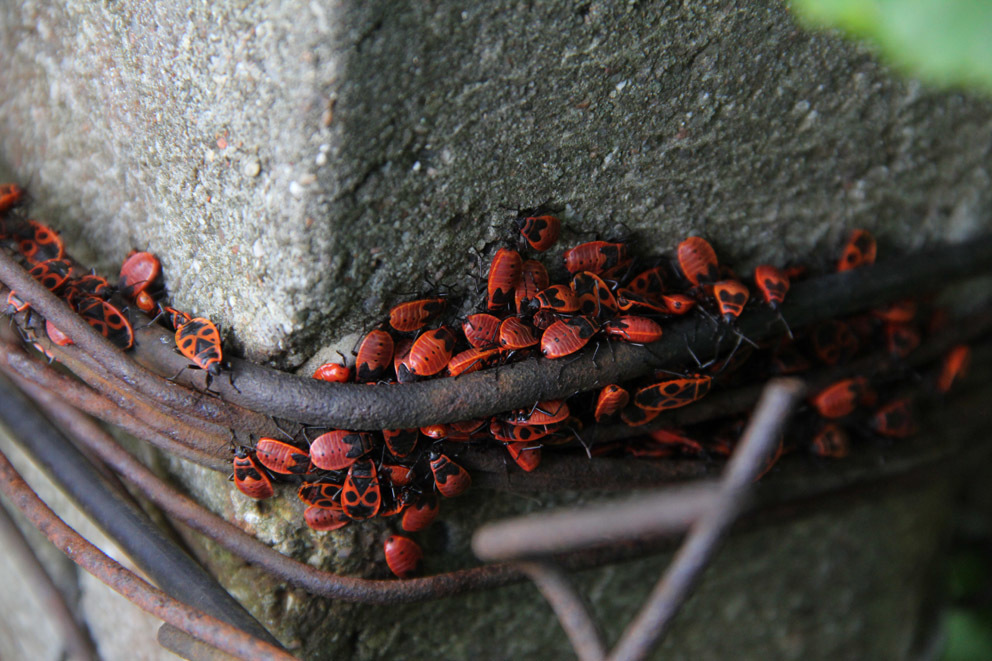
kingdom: Animalia
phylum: Arthropoda
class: Insecta
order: Hemiptera
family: Pyrrhocoridae
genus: Pyrrhocoris
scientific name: Pyrrhocoris apterus
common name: Firebug
